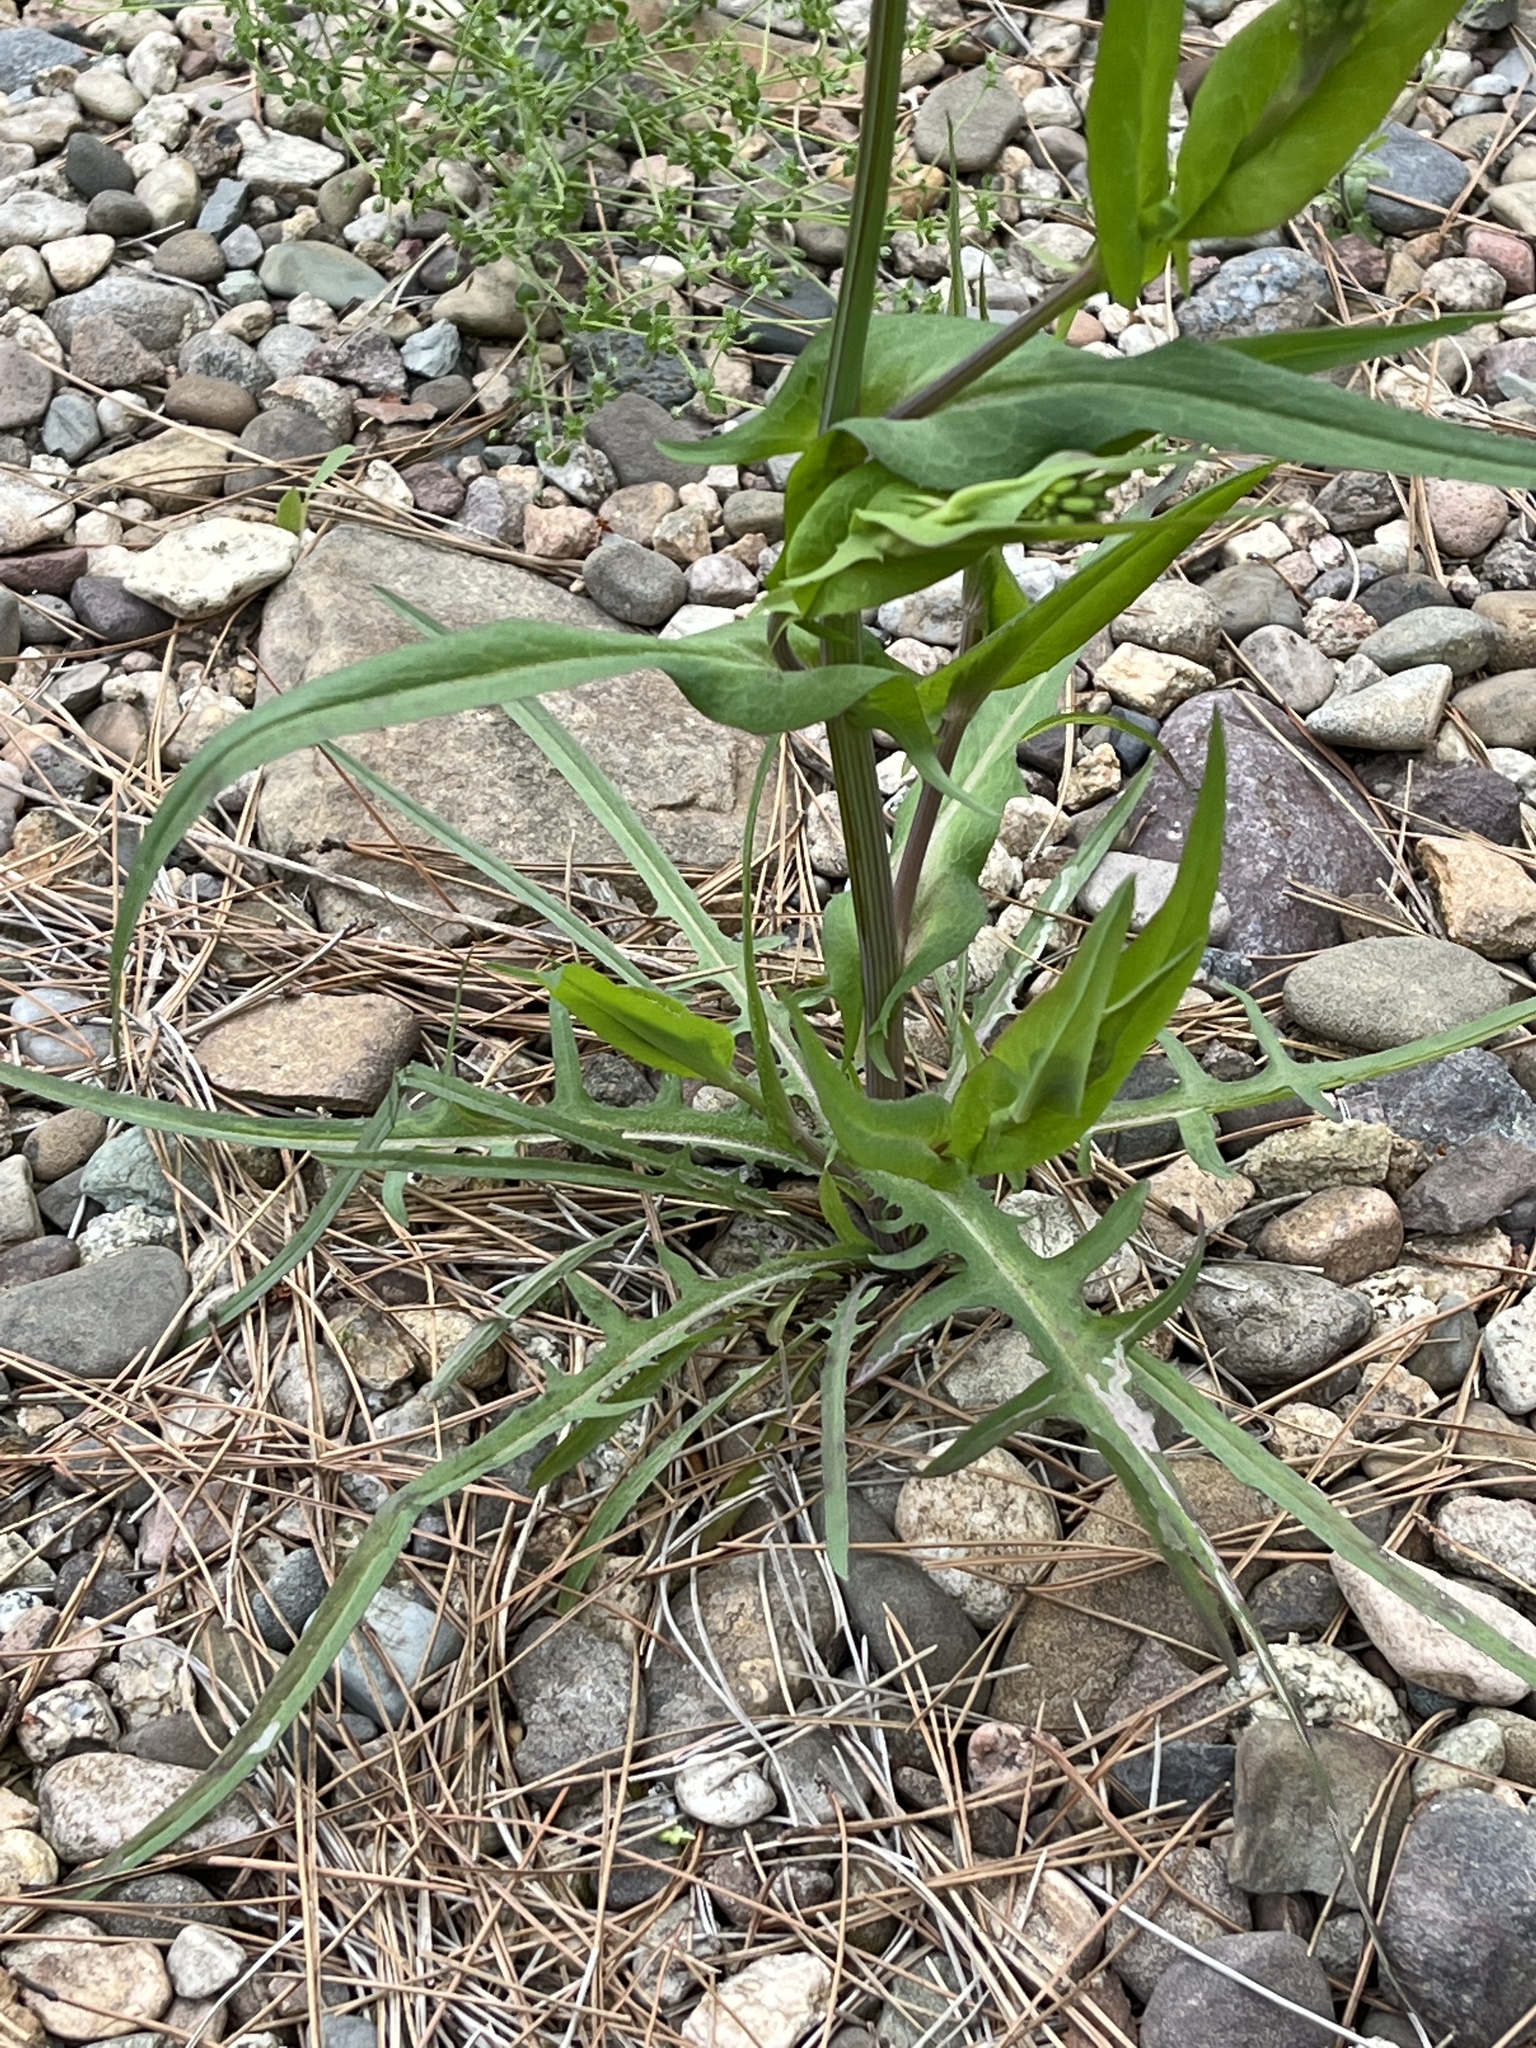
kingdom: Plantae
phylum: Tracheophyta
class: Magnoliopsida
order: Asterales
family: Asteraceae
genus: Ixeris
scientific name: Ixeris polycephala
